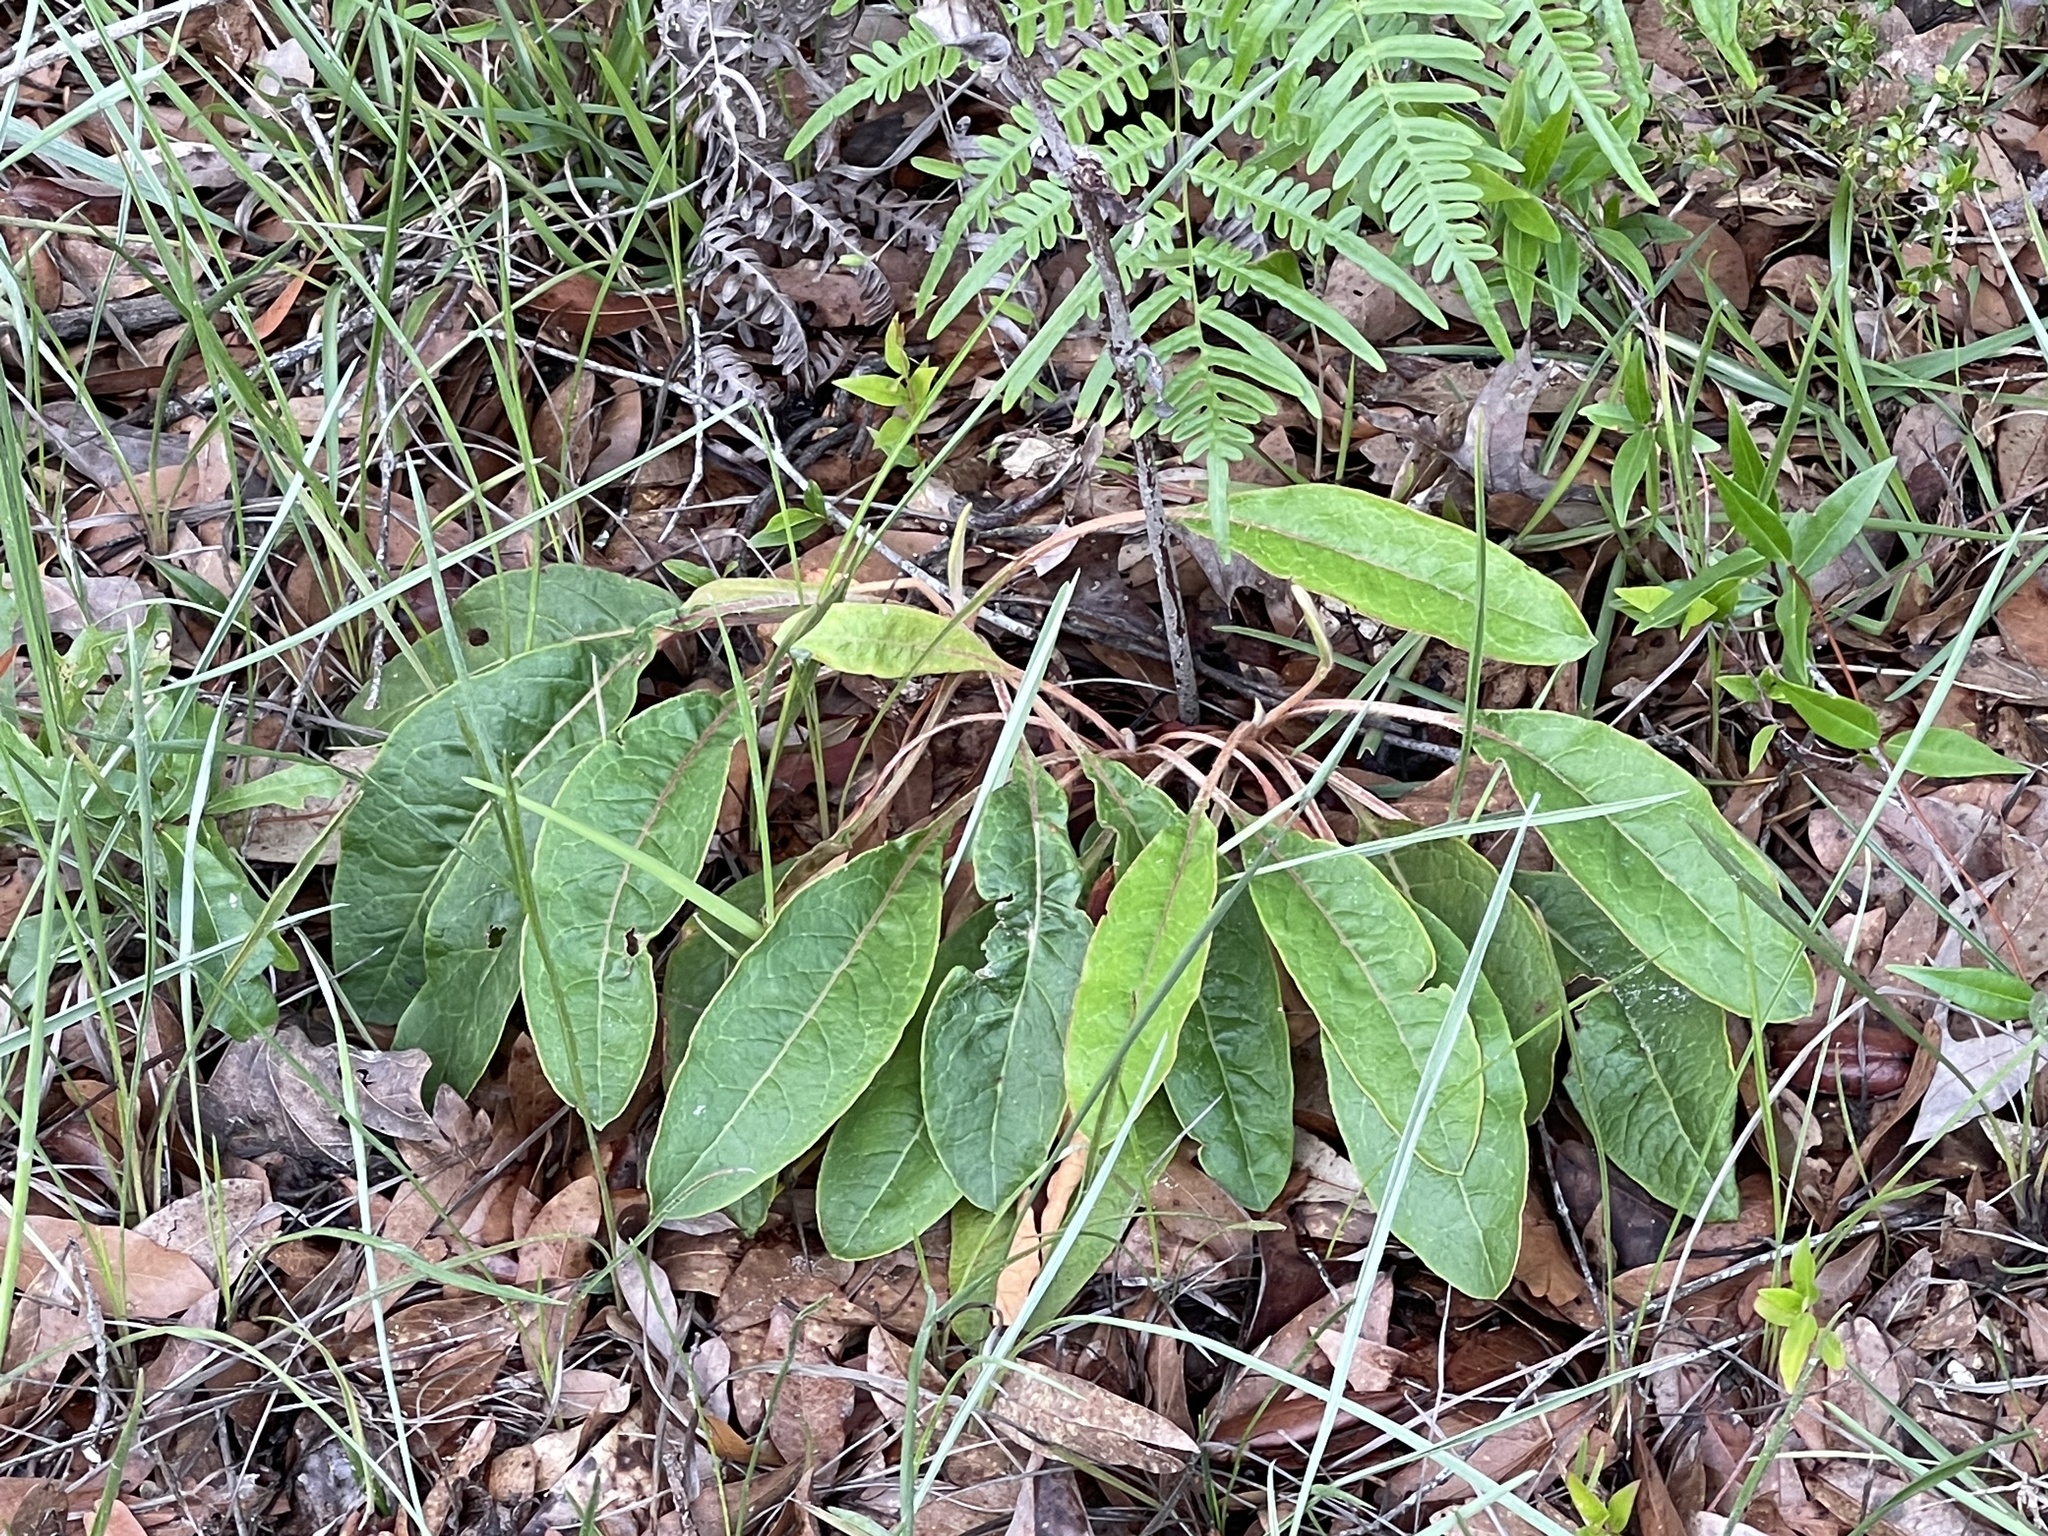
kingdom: Plantae
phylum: Tracheophyta
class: Magnoliopsida
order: Caryophyllales
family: Polygonaceae
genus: Eriogonum
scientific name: Eriogonum tomentosum
